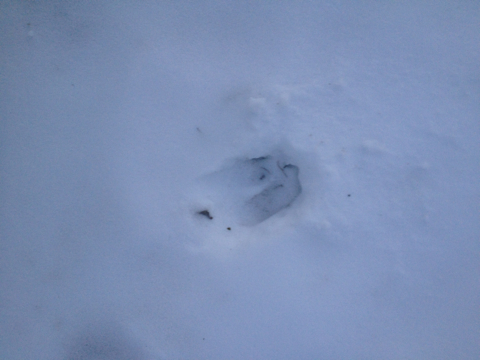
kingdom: Animalia
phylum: Chordata
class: Mammalia
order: Artiodactyla
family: Cervidae
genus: Odocoileus
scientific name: Odocoileus virginianus
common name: White-tailed deer
